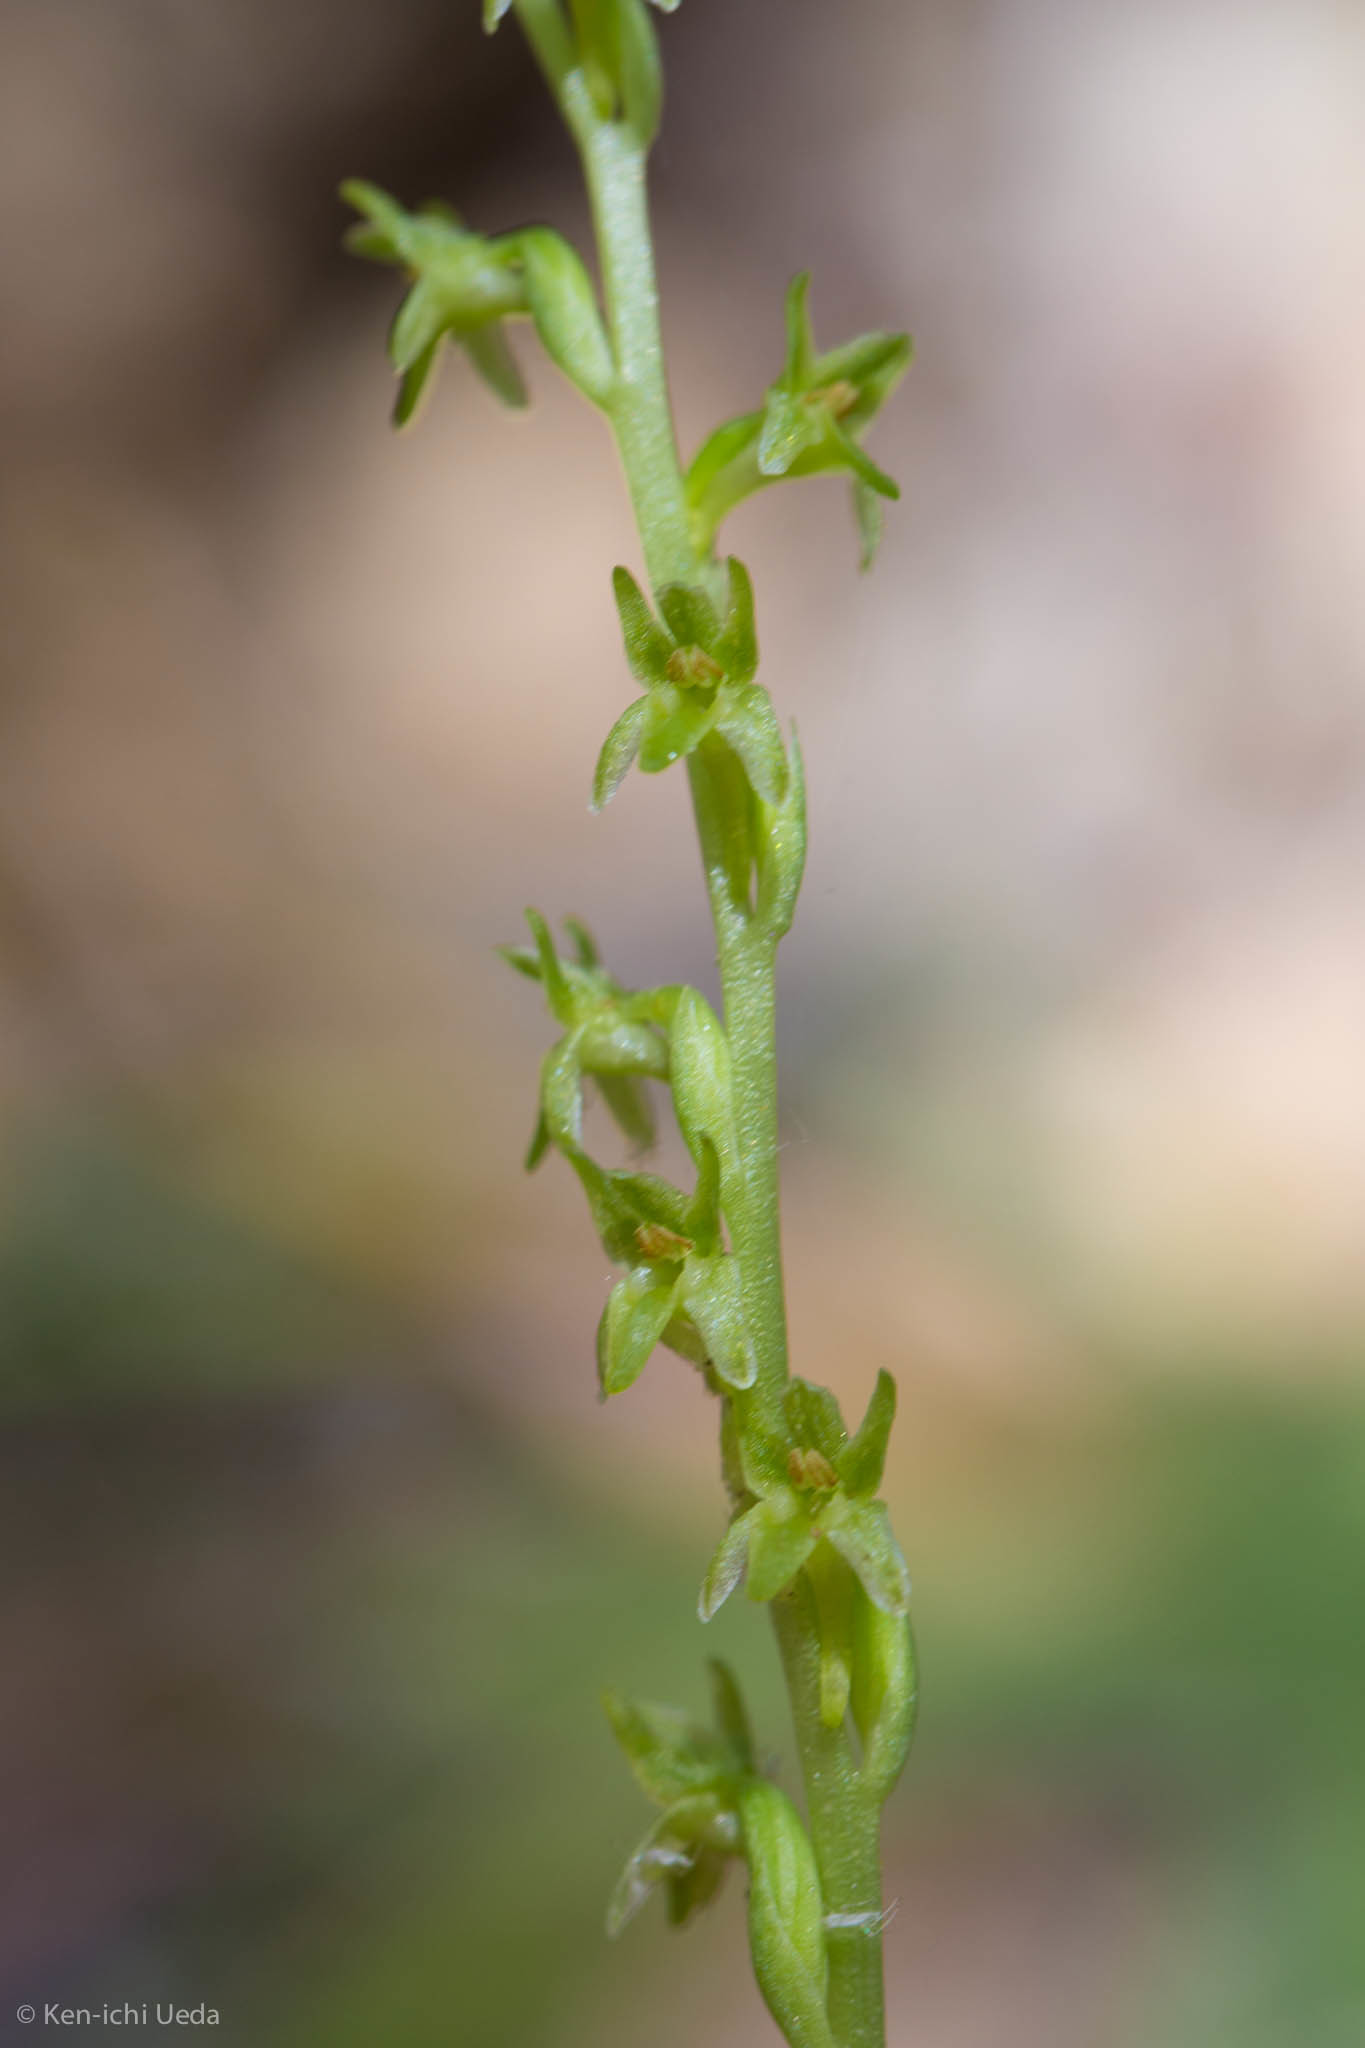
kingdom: Plantae
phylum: Tracheophyta
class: Liliopsida
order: Asparagales
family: Orchidaceae
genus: Platanthera
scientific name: Platanthera unalascensis
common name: Alaska bog orchid
